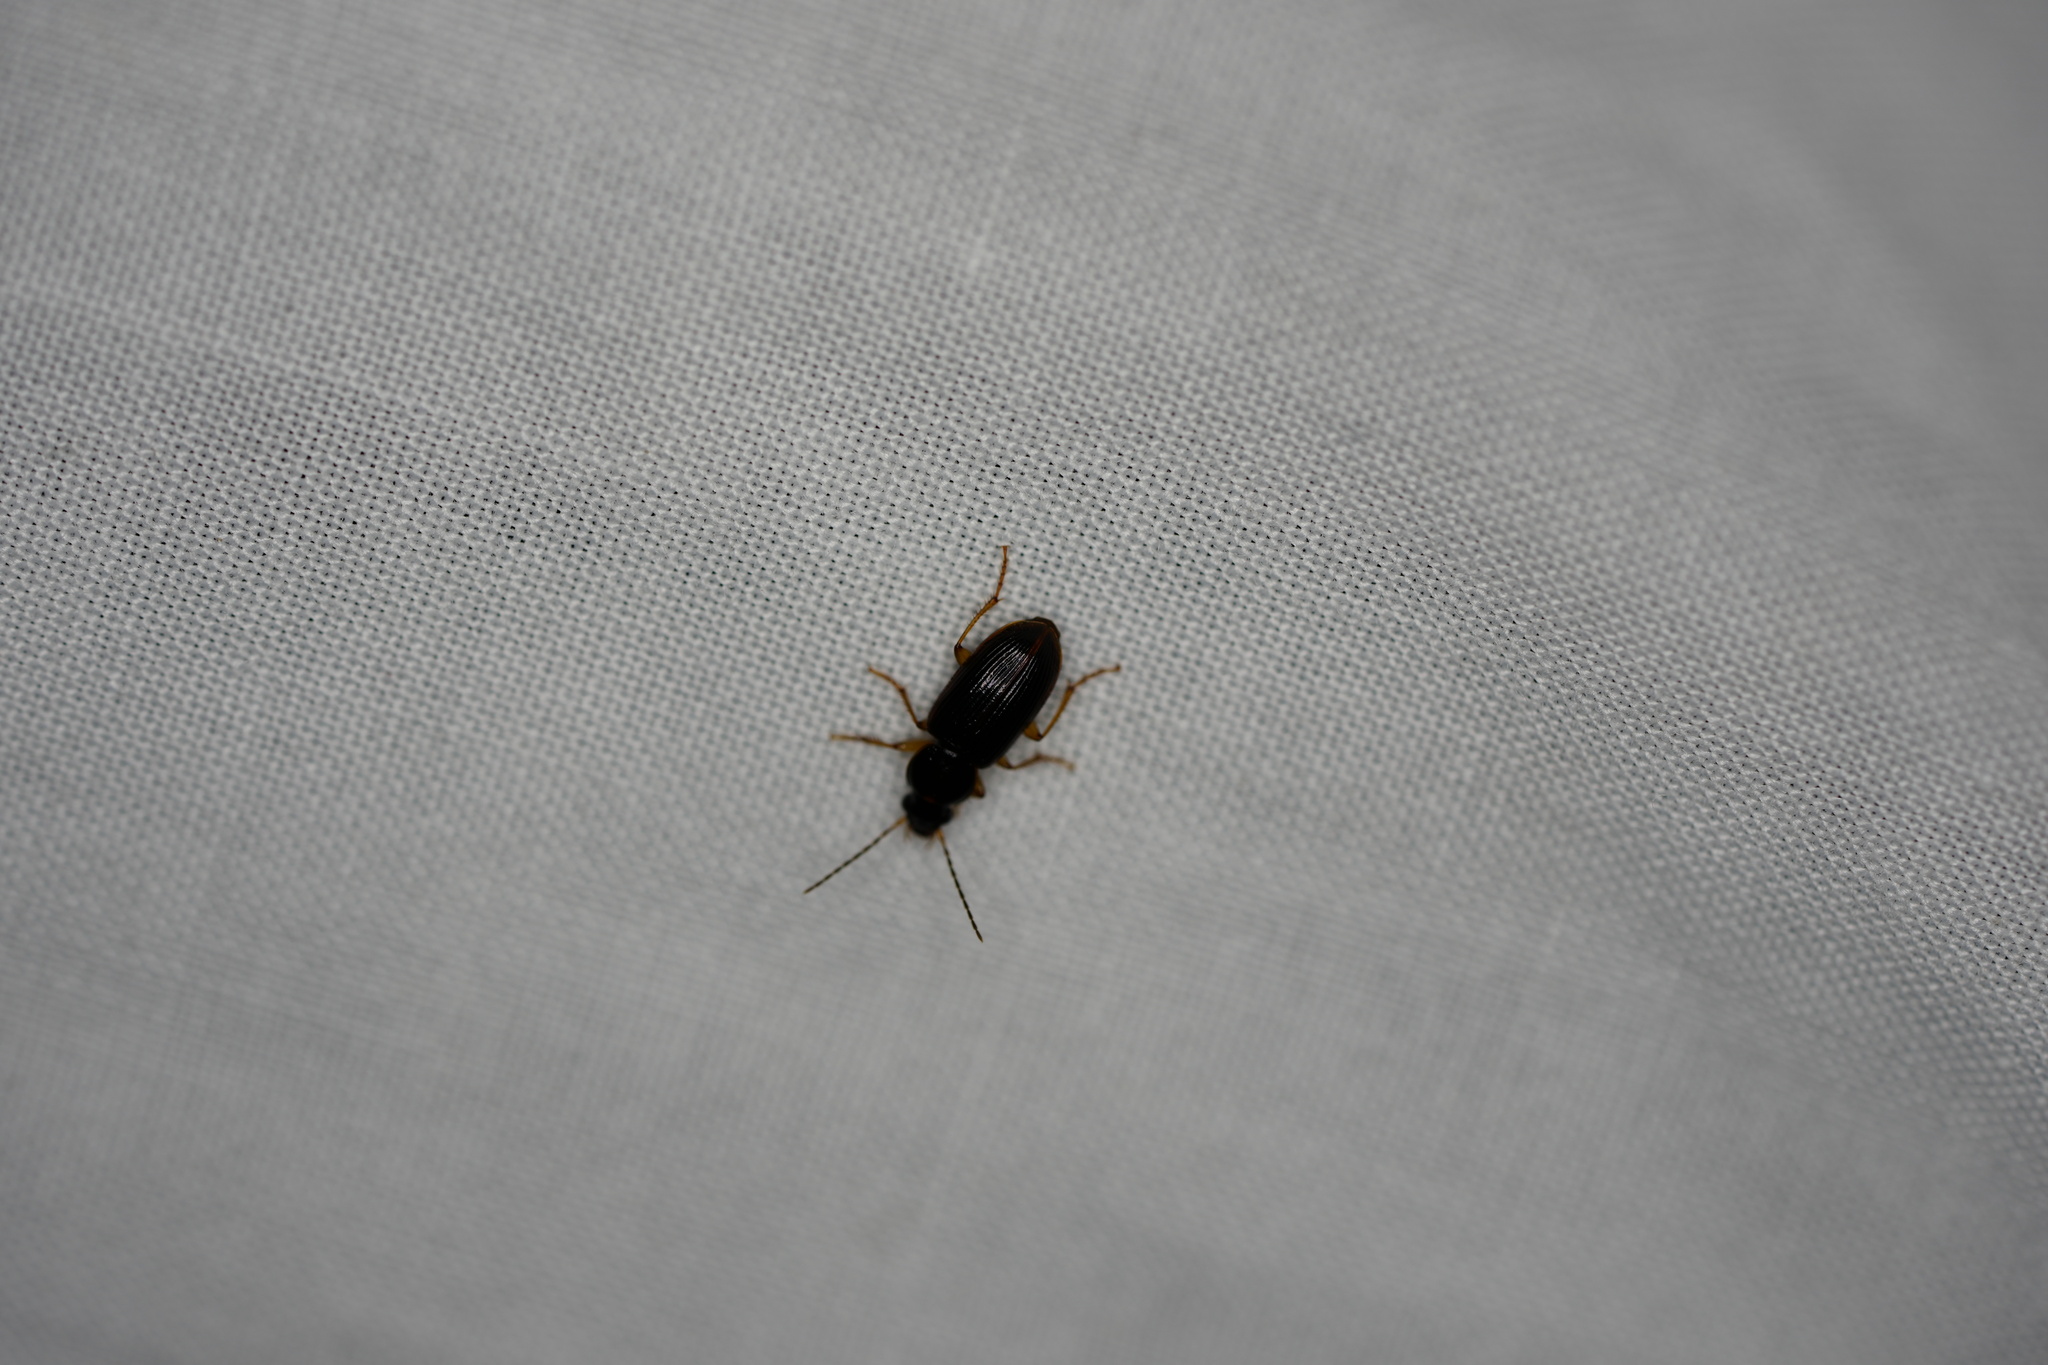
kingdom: Animalia
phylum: Arthropoda
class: Insecta
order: Coleoptera
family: Carabidae
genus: Stenolophus
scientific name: Stenolophus ochropezus
